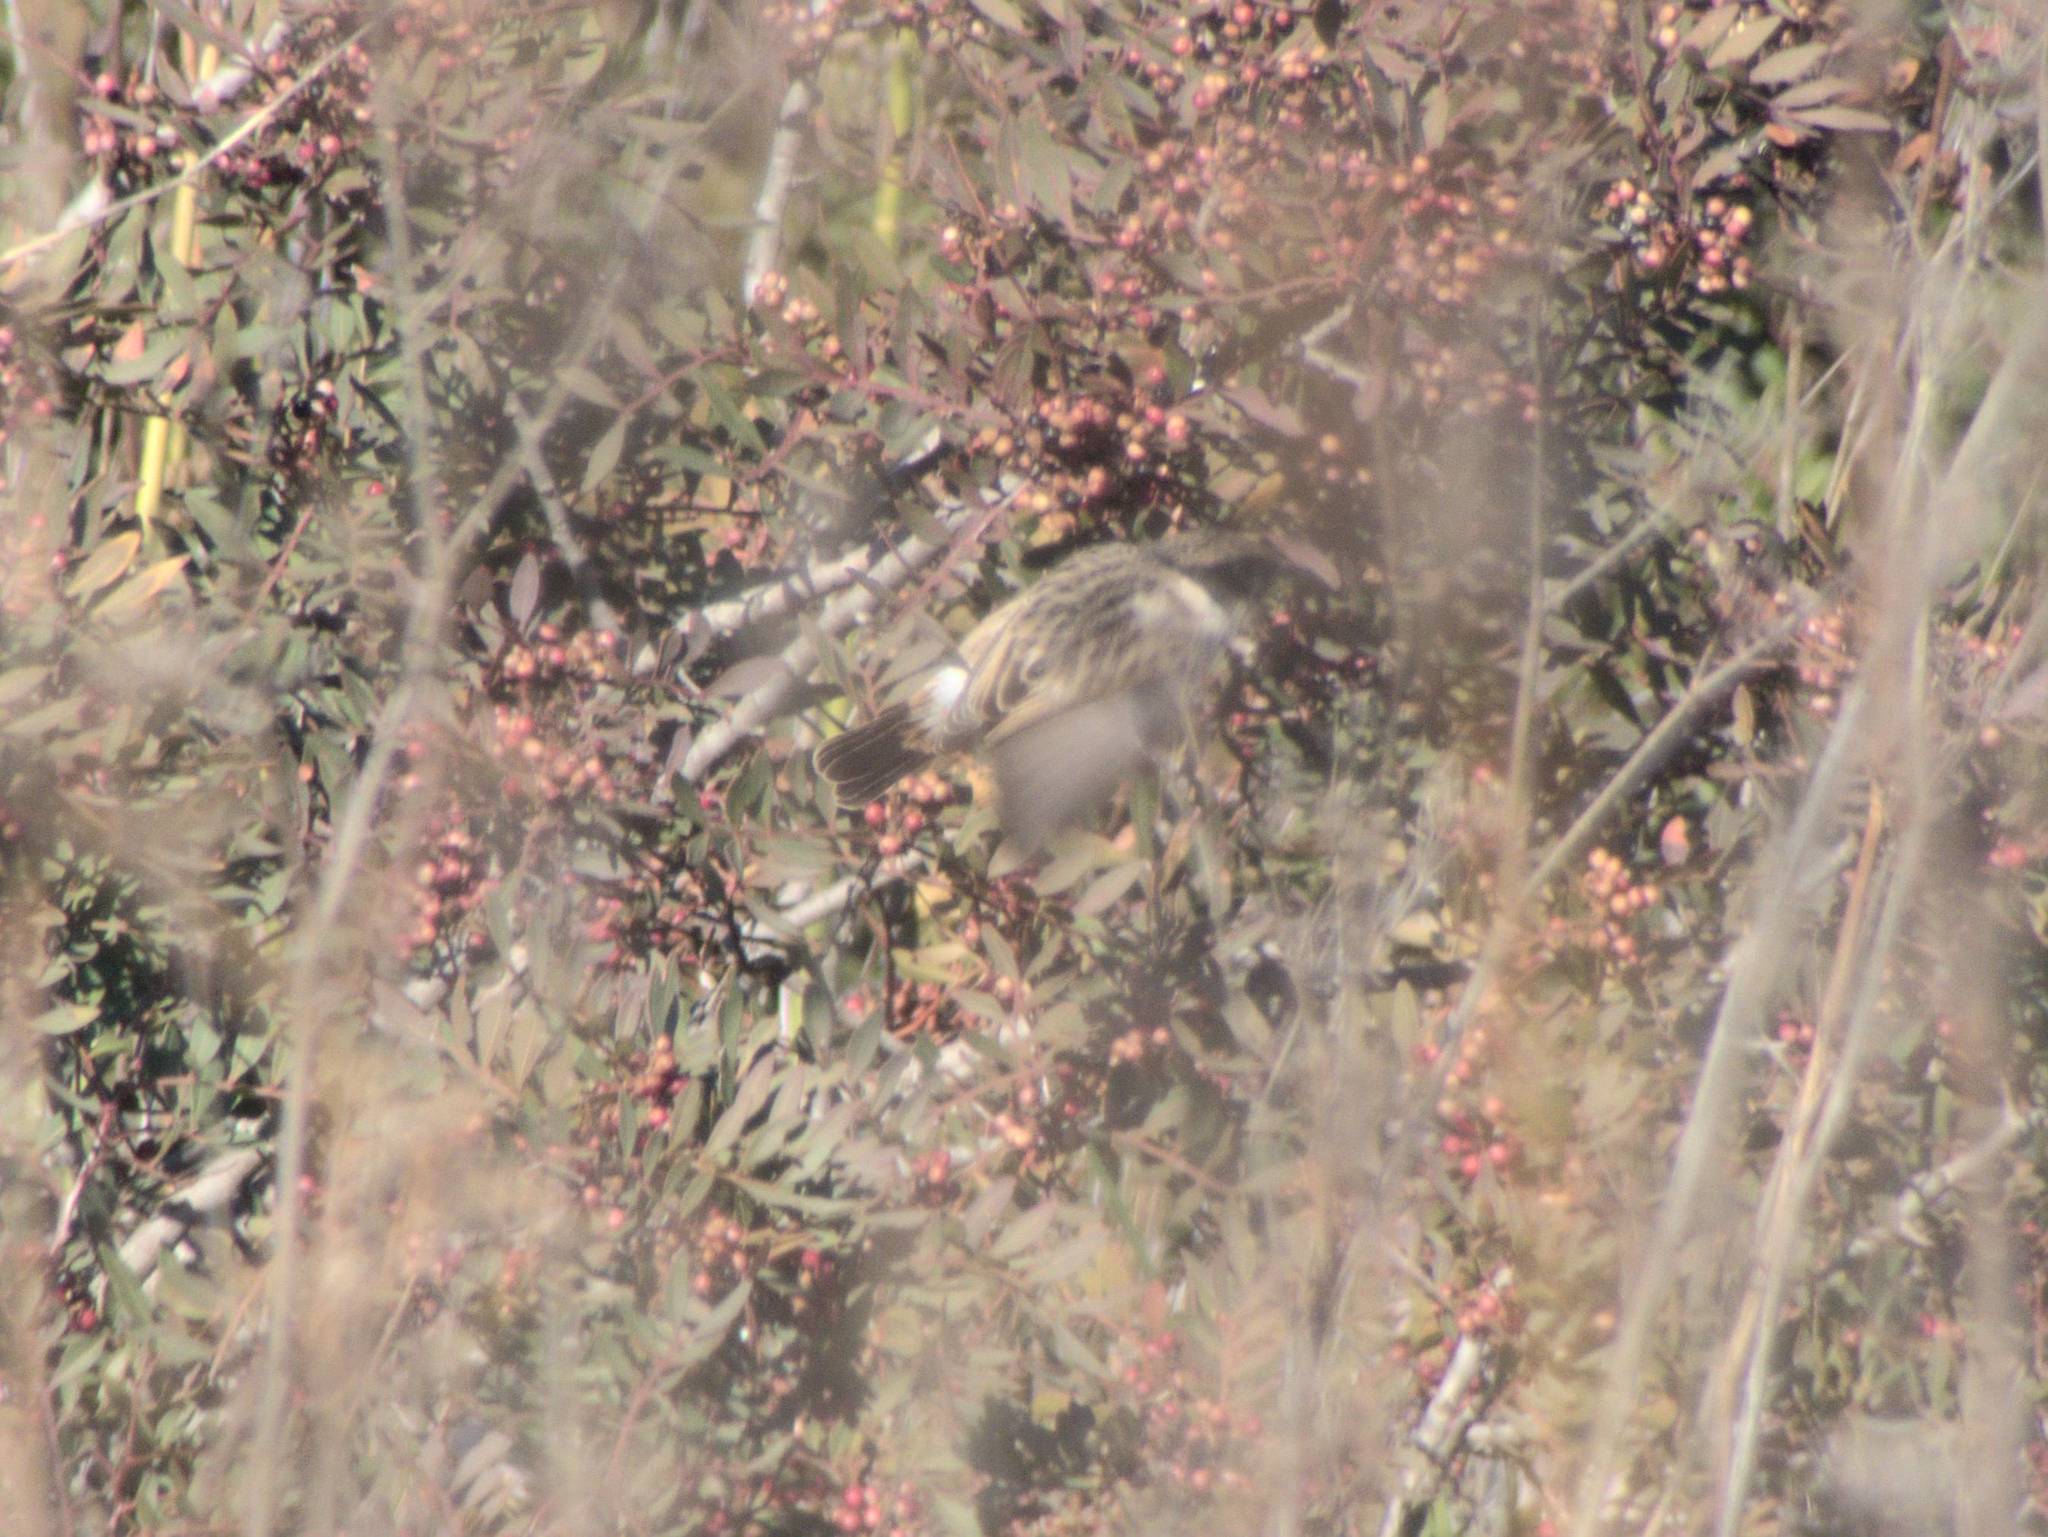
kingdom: Animalia
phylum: Chordata
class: Aves
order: Passeriformes
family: Muscicapidae
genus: Saxicola
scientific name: Saxicola rubicola
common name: European stonechat
